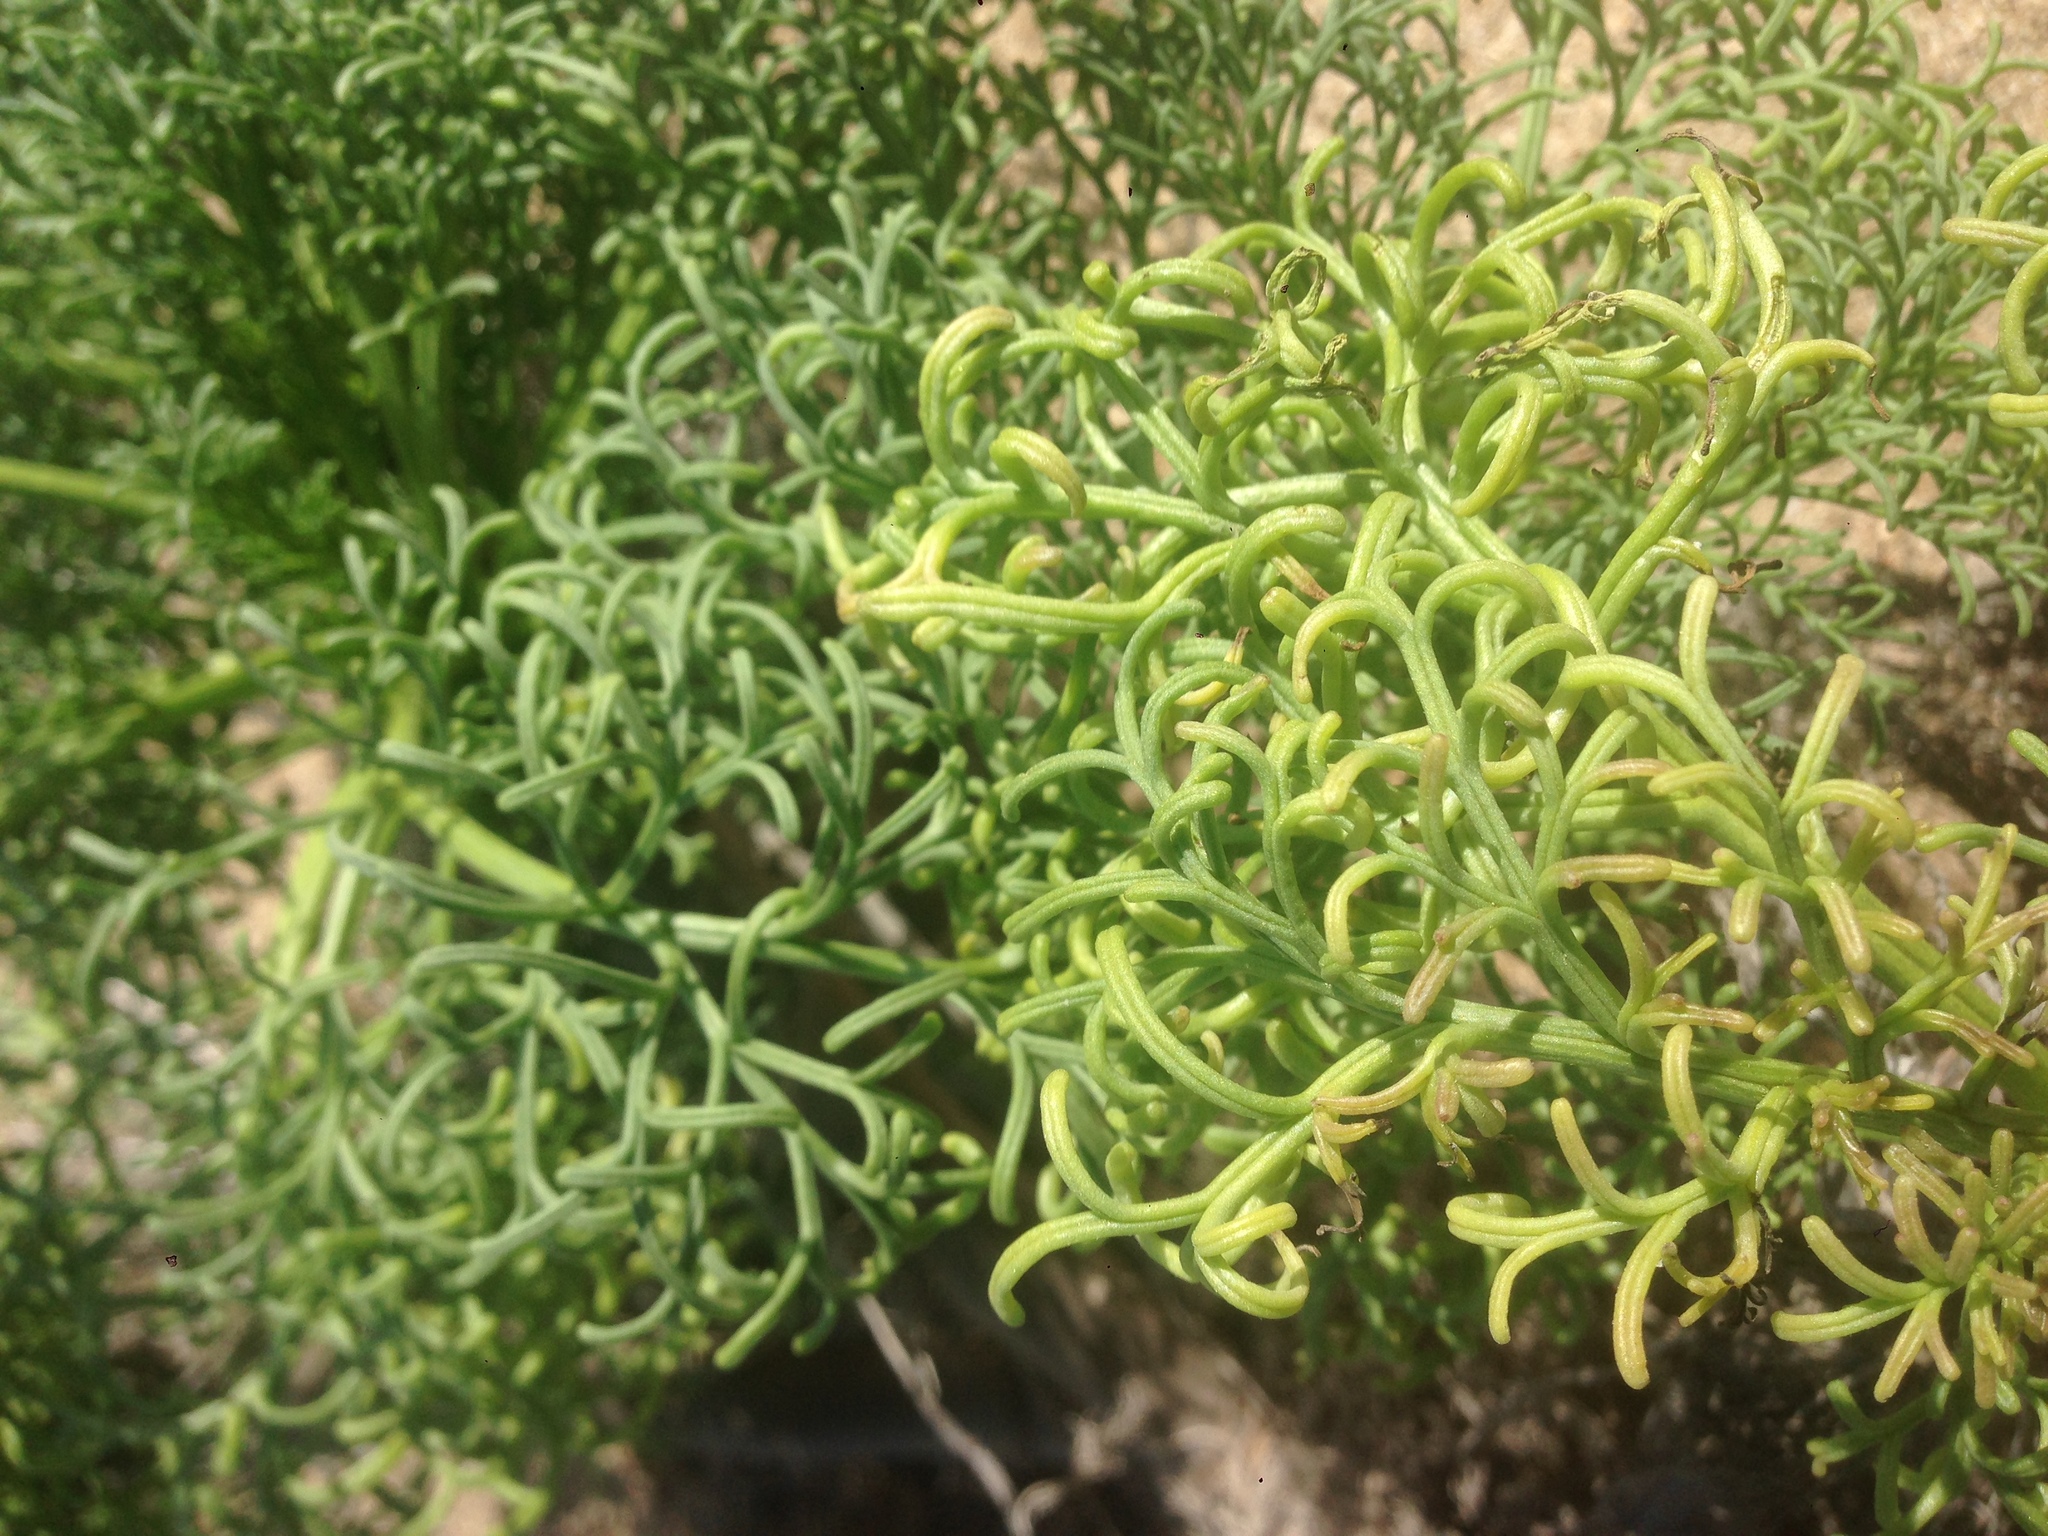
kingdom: Plantae
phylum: Tracheophyta
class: Magnoliopsida
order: Asterales
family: Asteraceae
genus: Coreopsis
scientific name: Coreopsis gigantea
